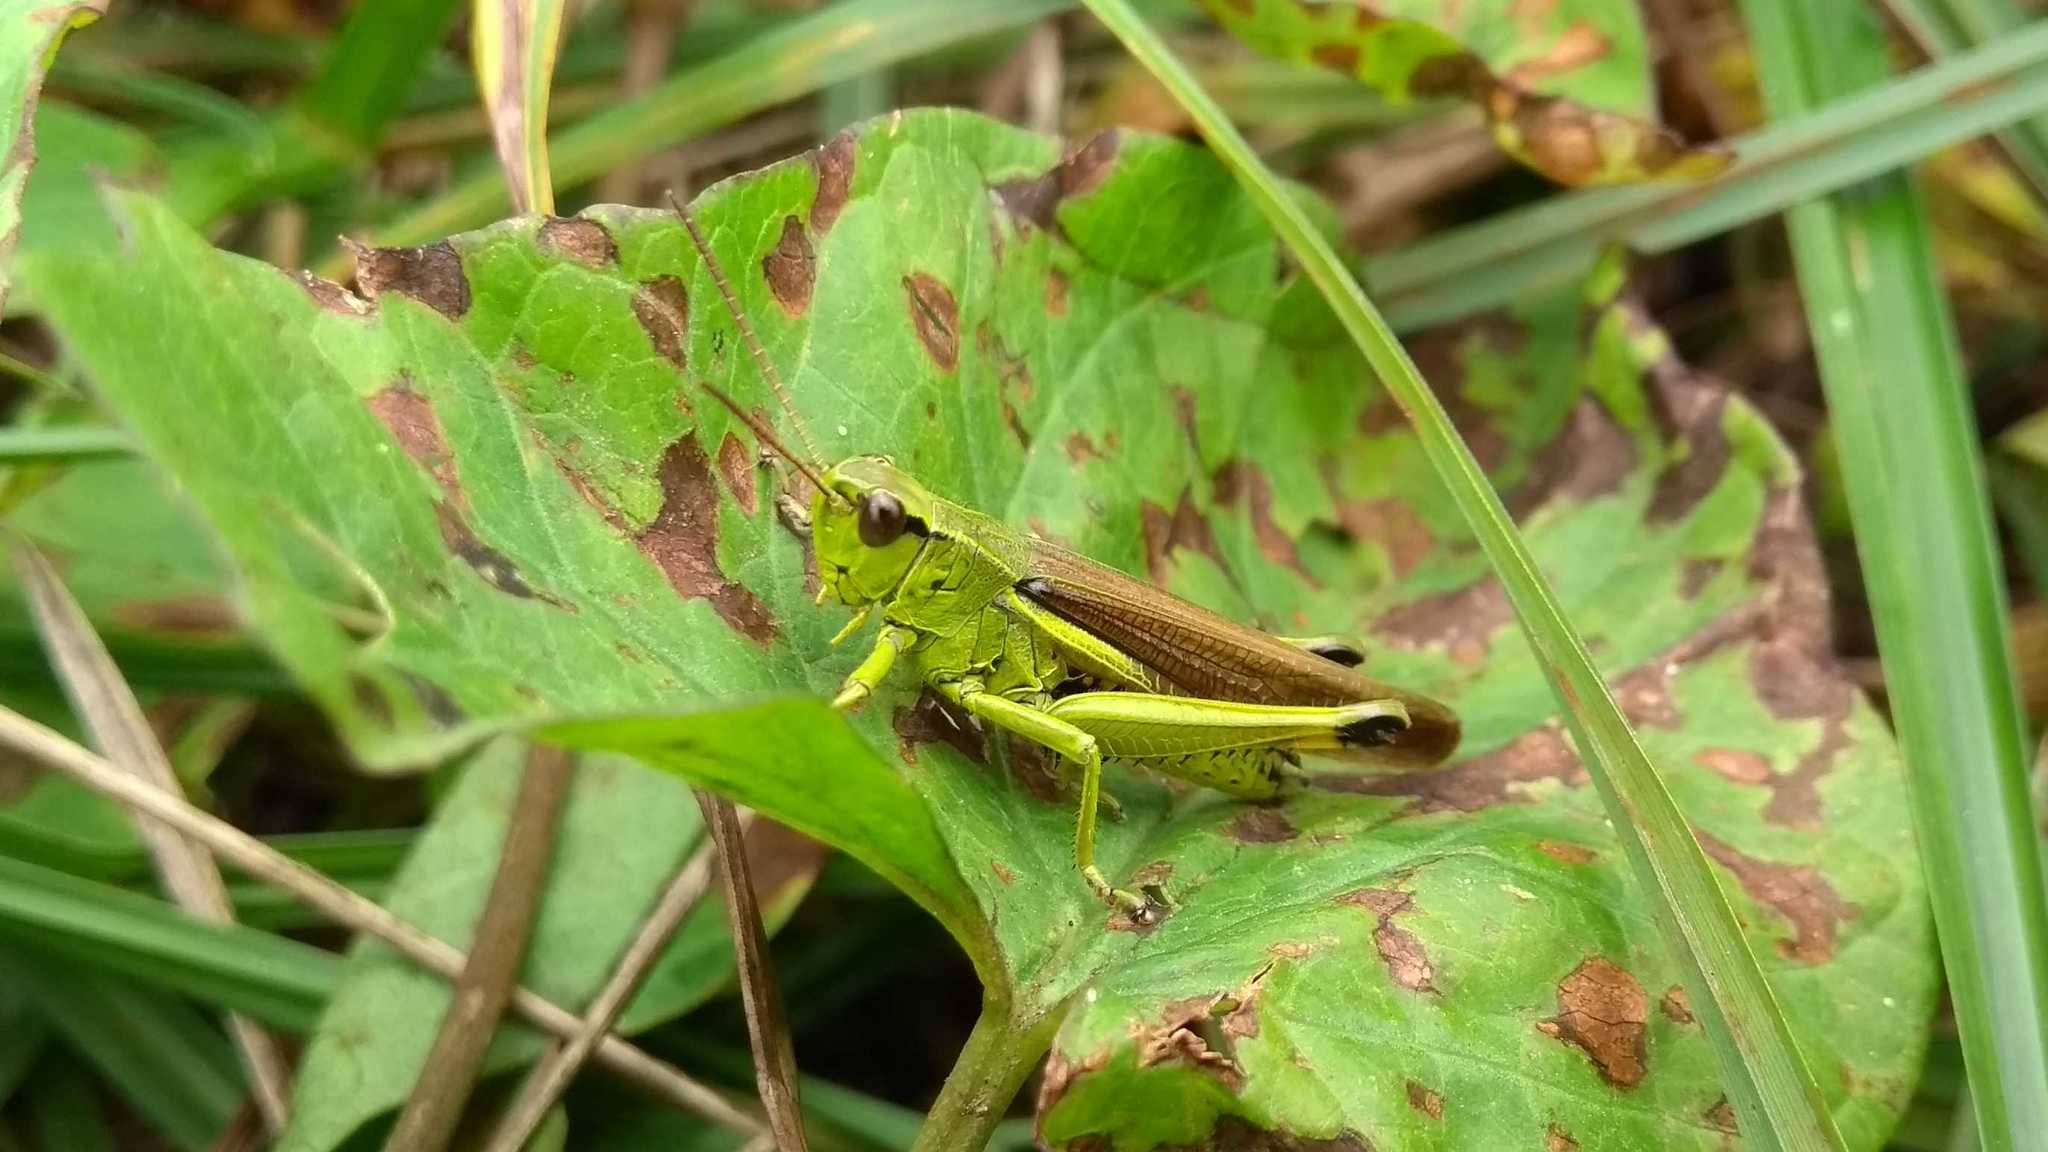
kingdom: Animalia
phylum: Arthropoda
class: Insecta
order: Orthoptera
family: Acrididae
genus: Stethophyma
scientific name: Stethophyma grossum
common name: Large marsh grasshopper
